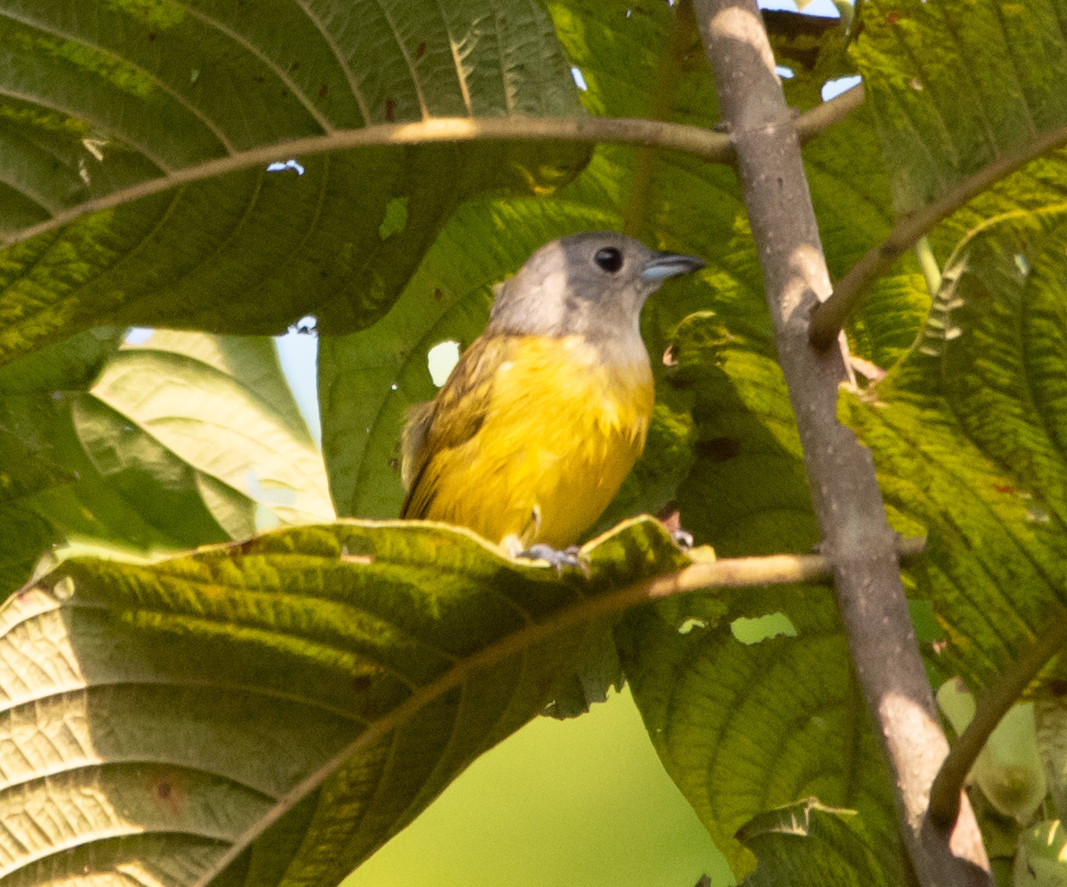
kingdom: Animalia
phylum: Chordata
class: Aves
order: Passeriformes
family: Thraupidae
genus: Loriotus
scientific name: Loriotus luctuosus
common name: White-shouldered tanager
